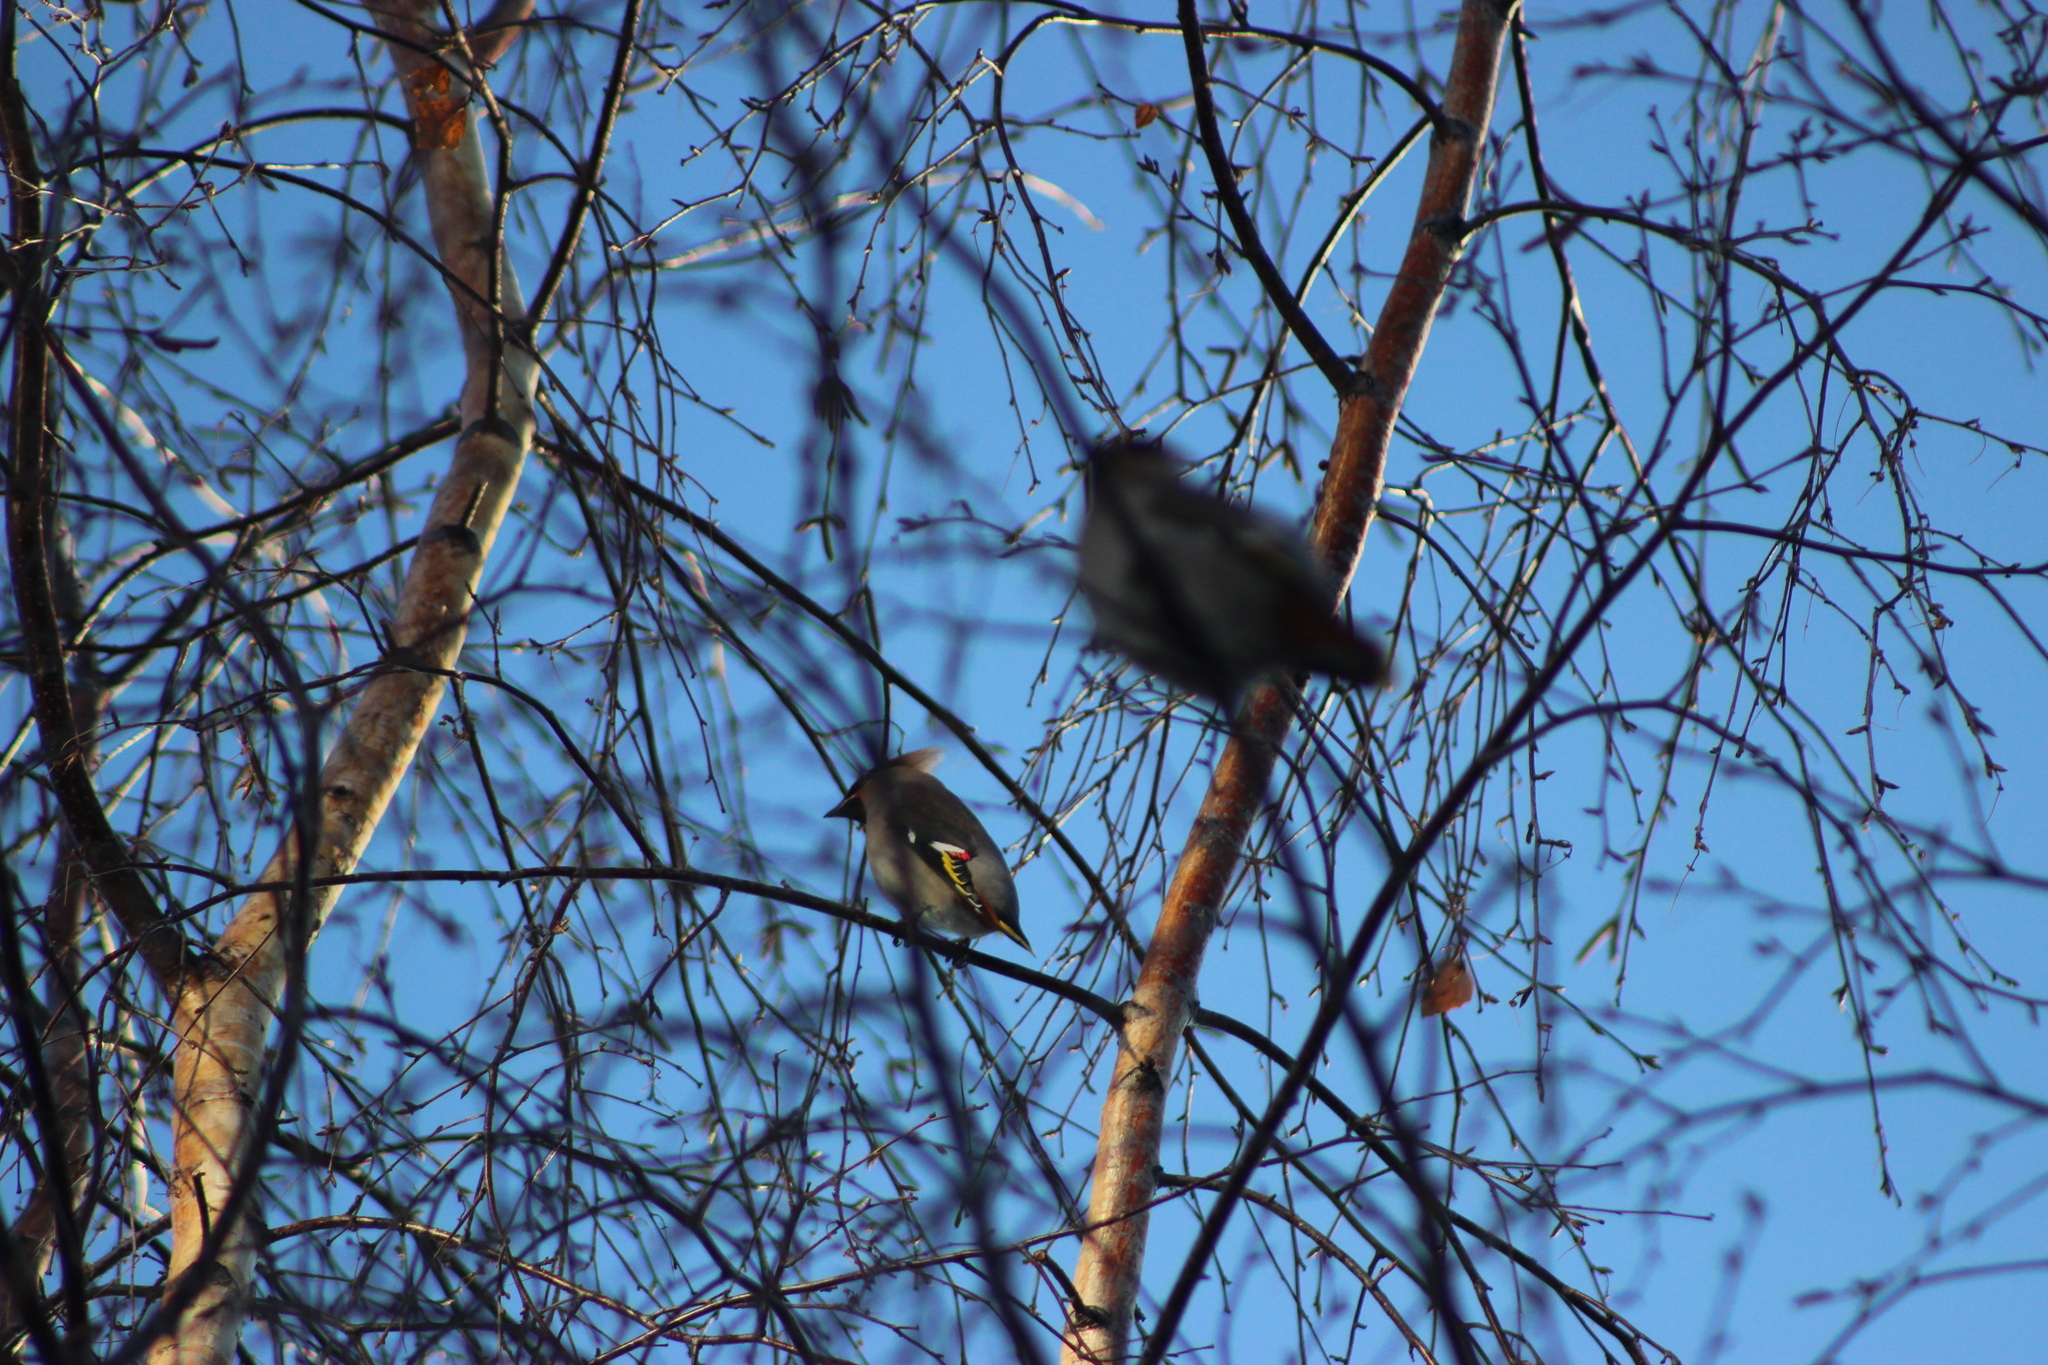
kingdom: Animalia
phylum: Chordata
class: Aves
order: Passeriformes
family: Bombycillidae
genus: Bombycilla
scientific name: Bombycilla garrulus
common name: Bohemian waxwing
